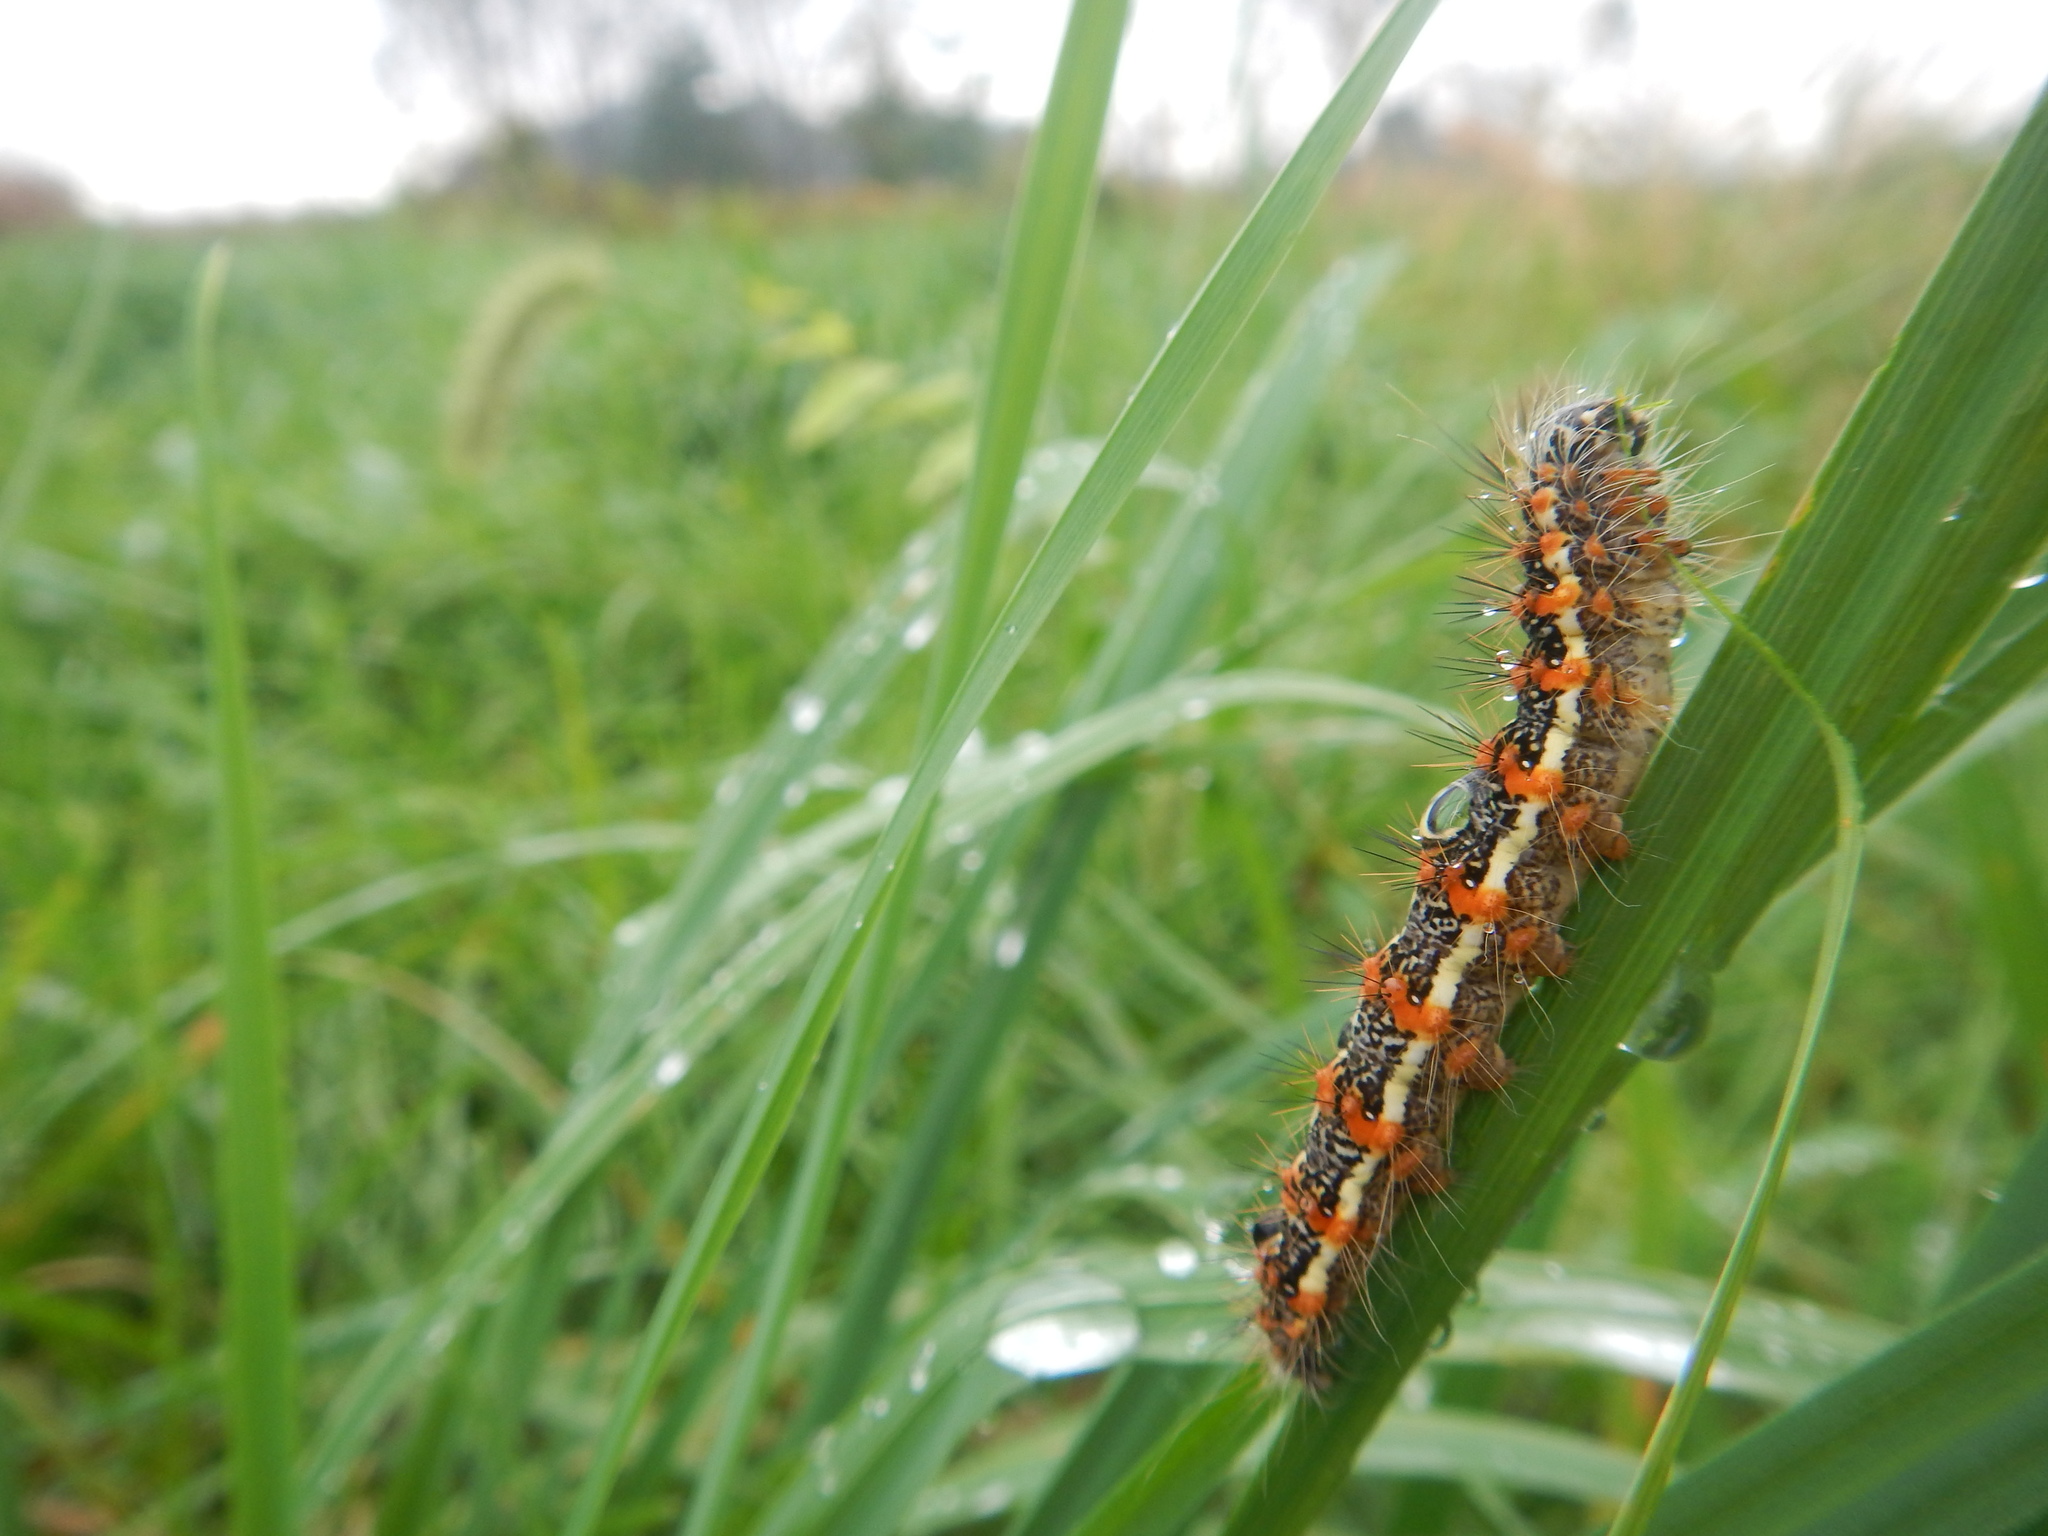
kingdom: Animalia
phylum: Arthropoda
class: Insecta
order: Lepidoptera
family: Noctuidae
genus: Acronicta
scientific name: Acronicta insularis
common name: Henry's marsh moth
